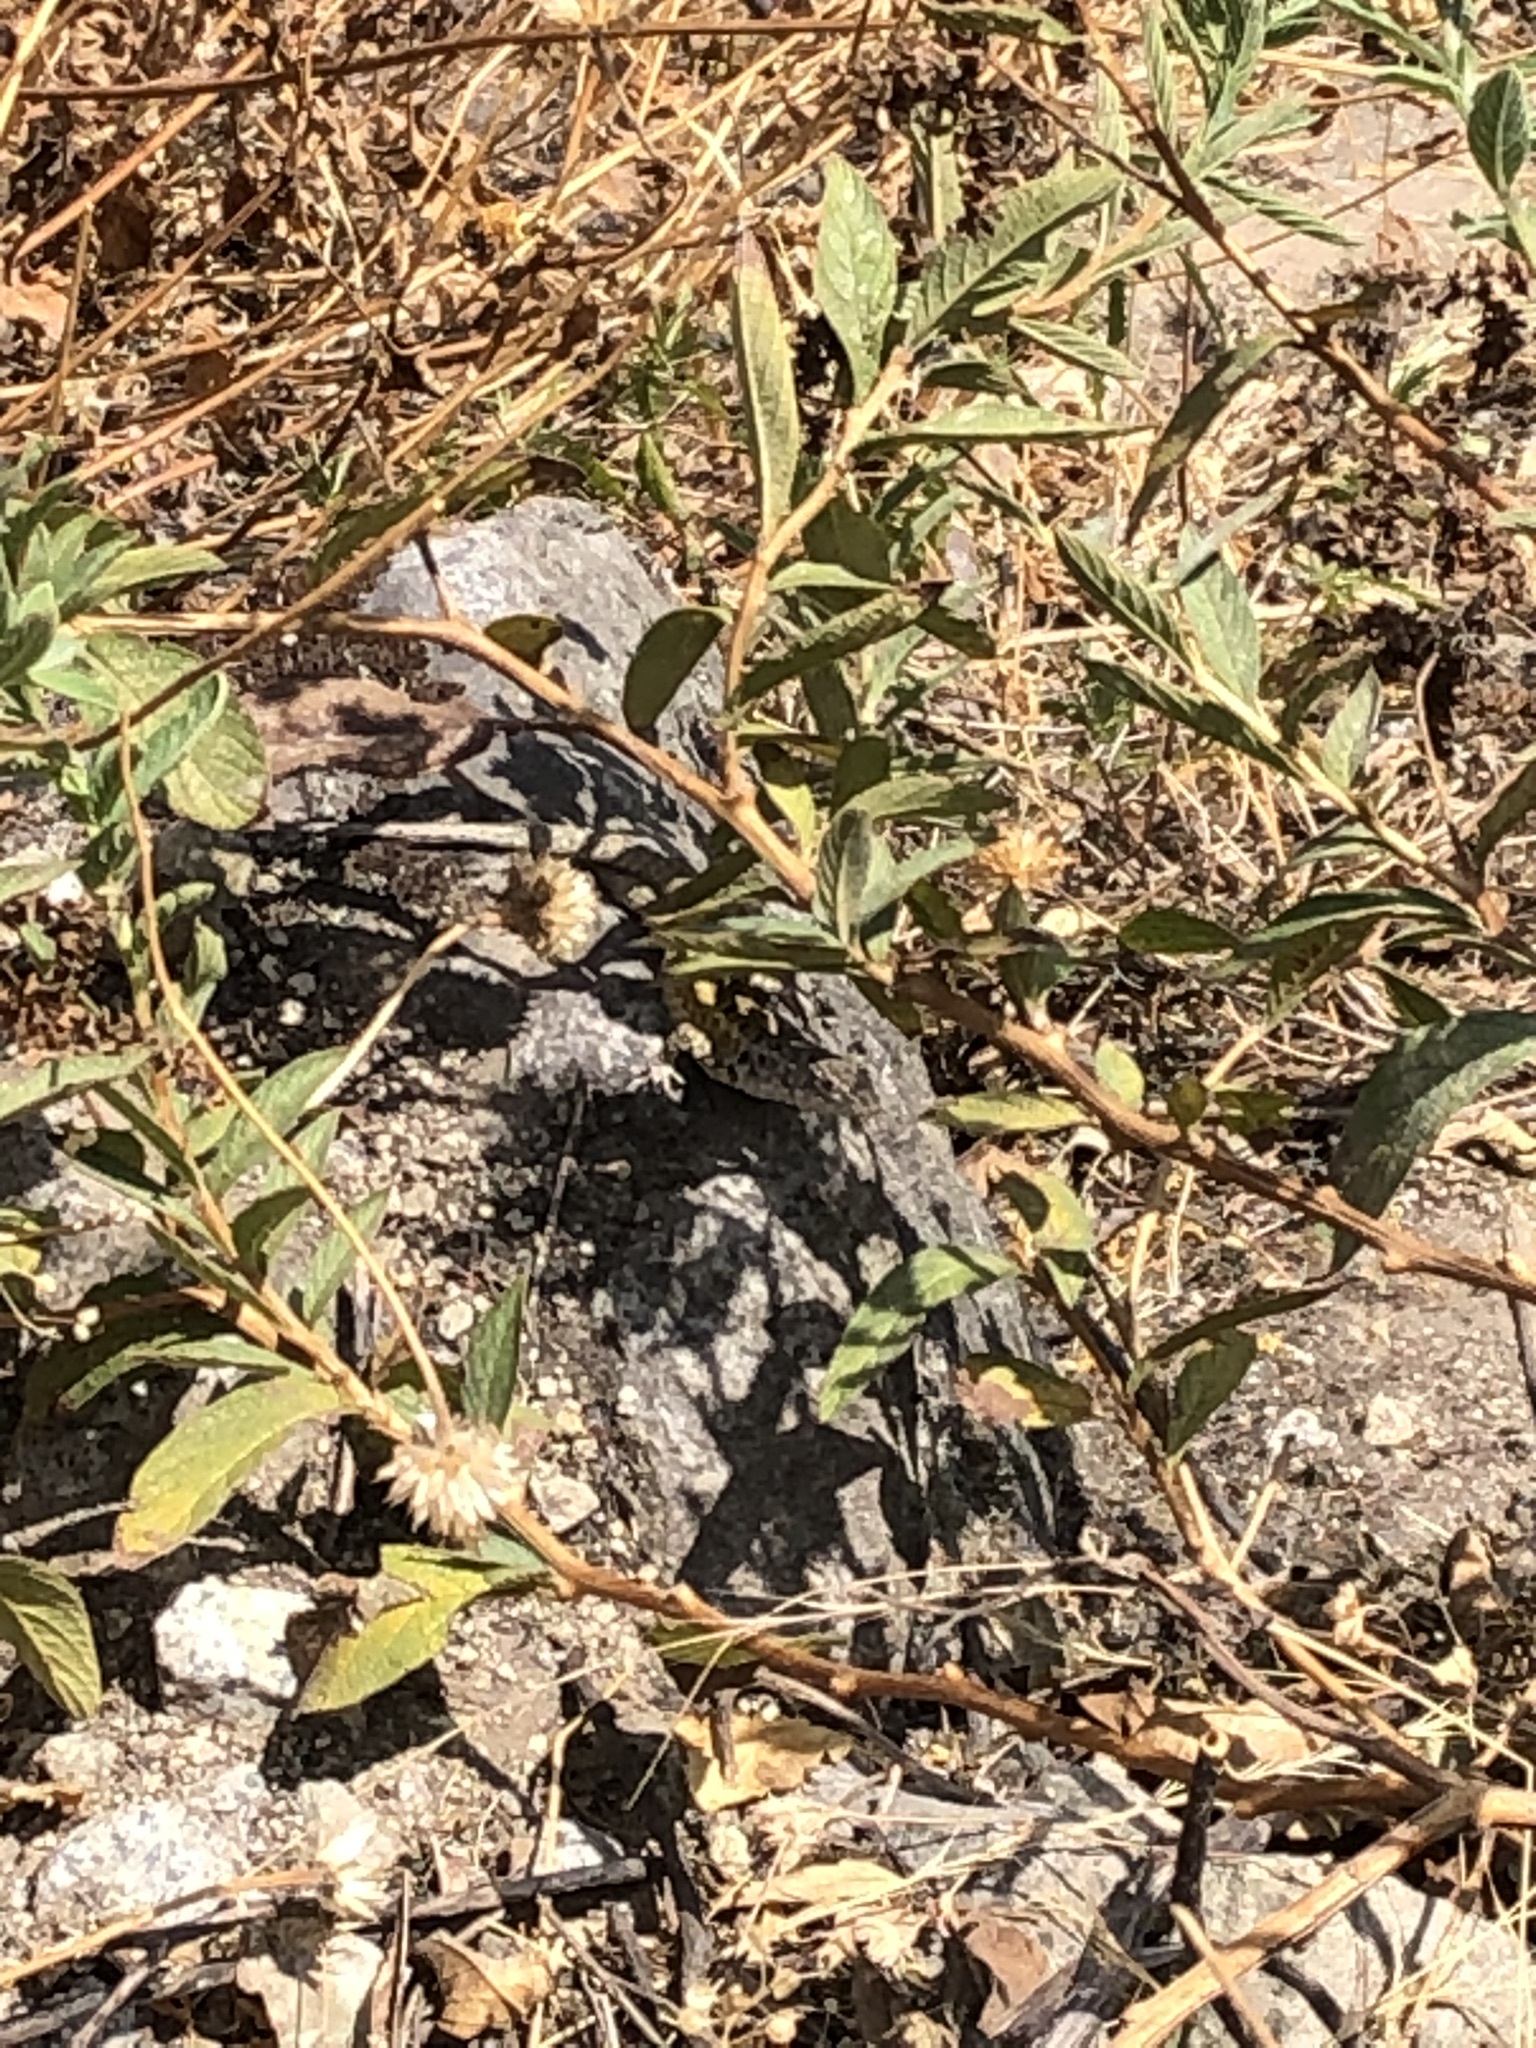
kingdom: Animalia
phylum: Chordata
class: Squamata
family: Tropiduridae
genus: Stenocercus
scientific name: Stenocercus ornatissimus
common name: Lesser ornate whorltail iguana
